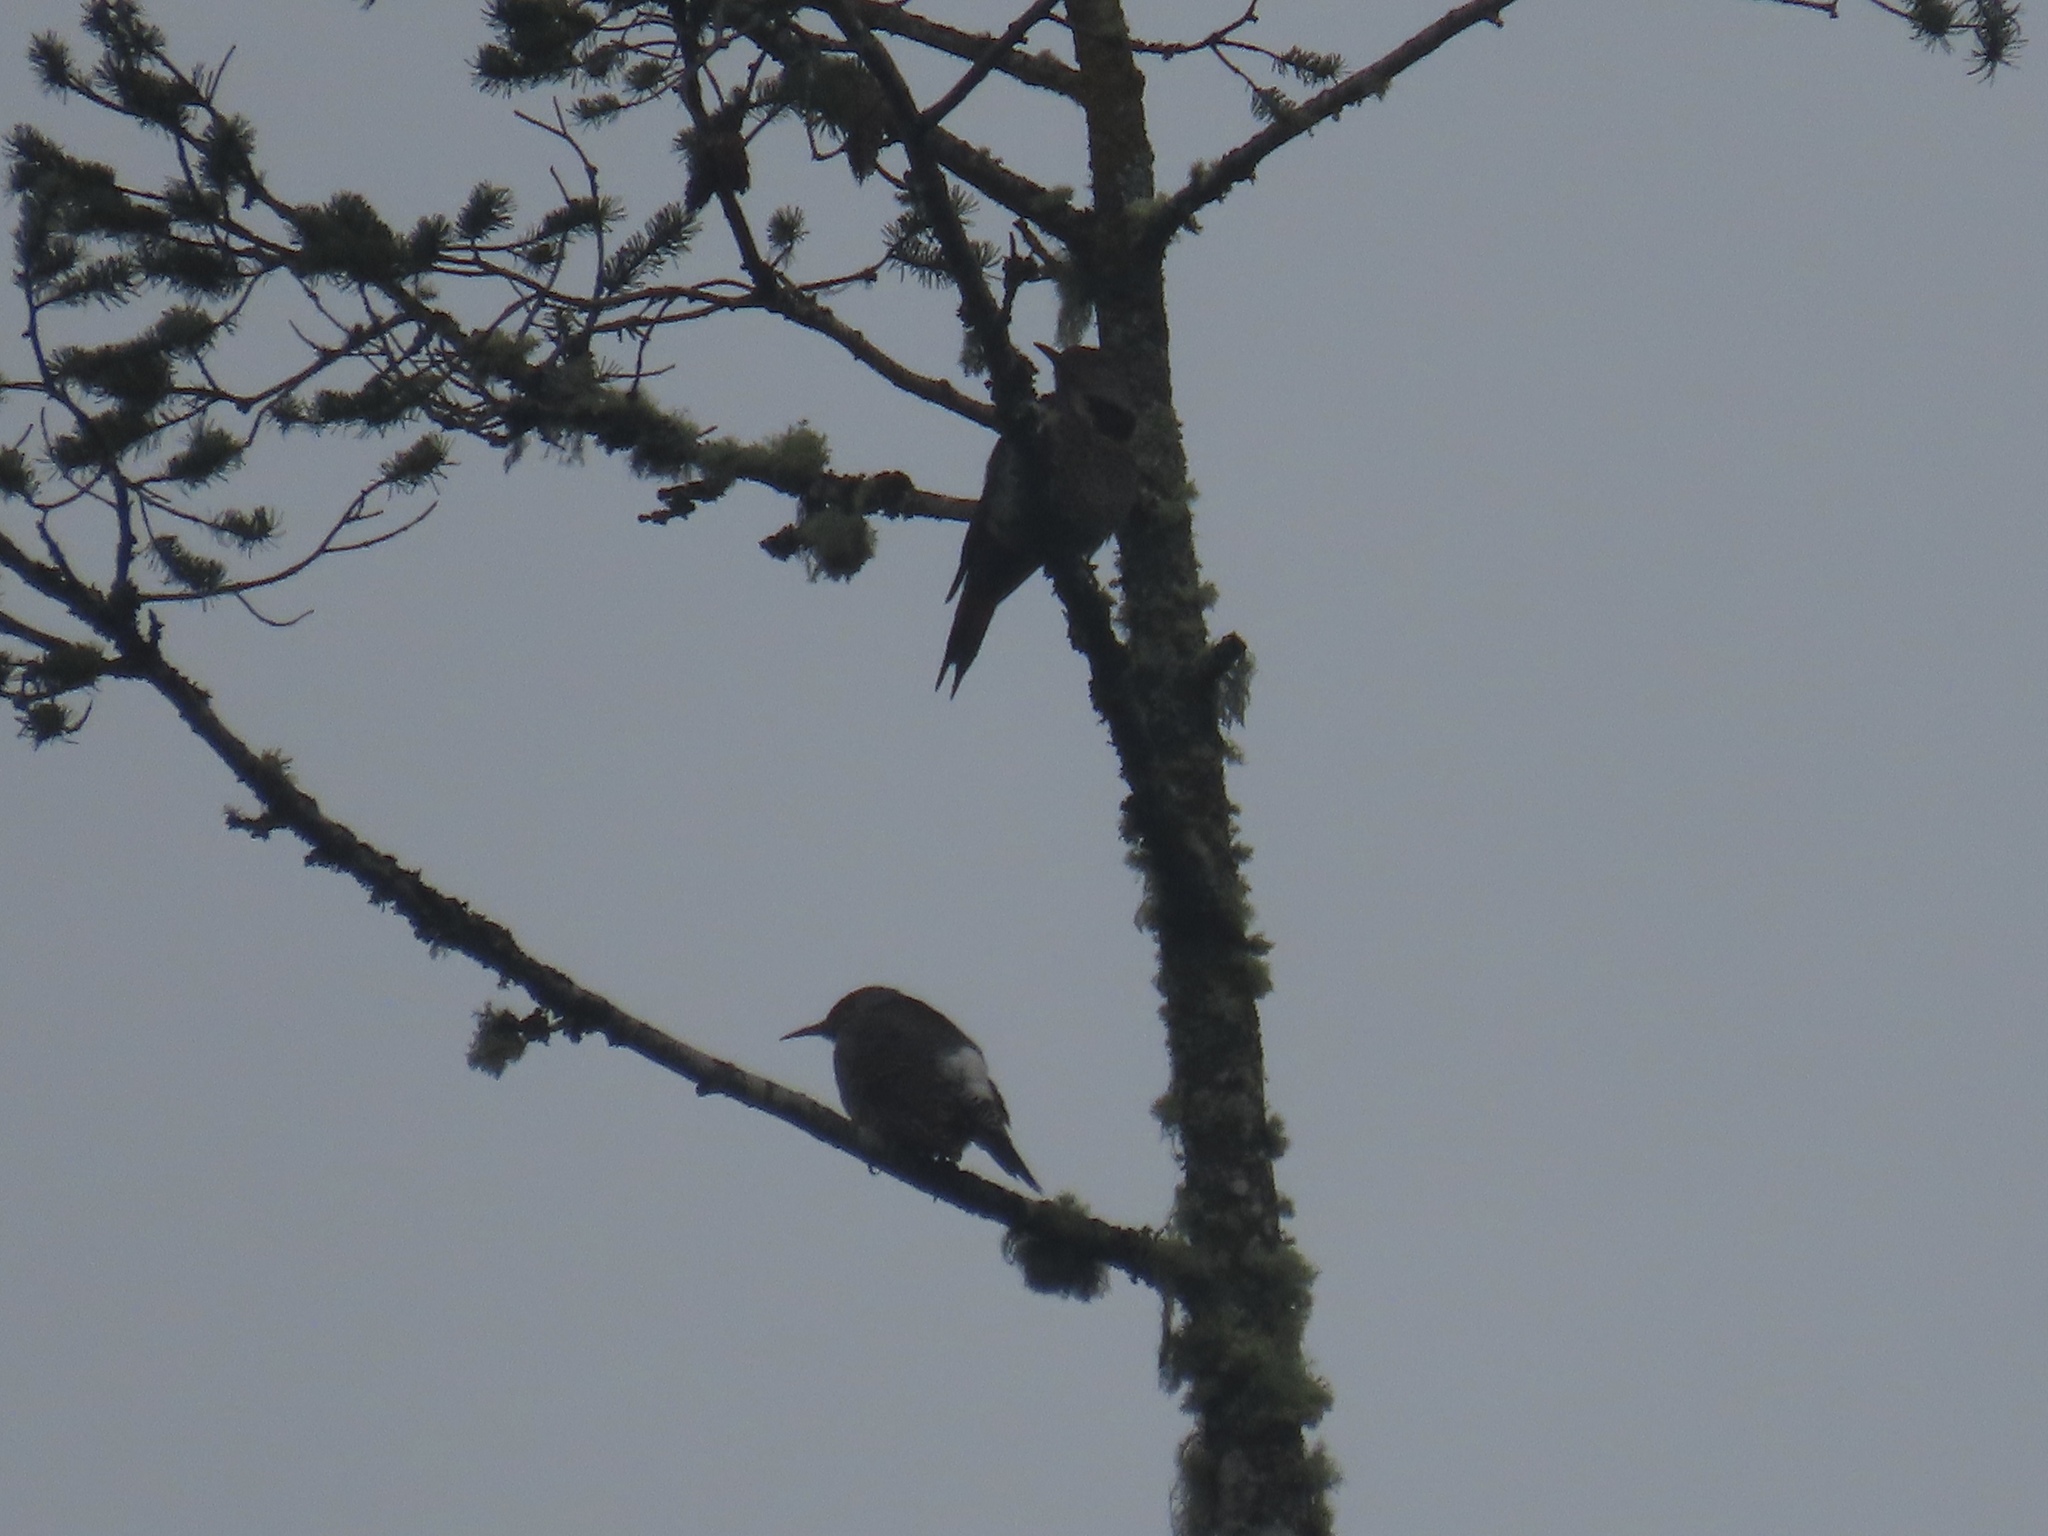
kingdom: Animalia
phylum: Chordata
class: Aves
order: Piciformes
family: Picidae
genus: Colaptes
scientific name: Colaptes auratus
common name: Northern flicker
